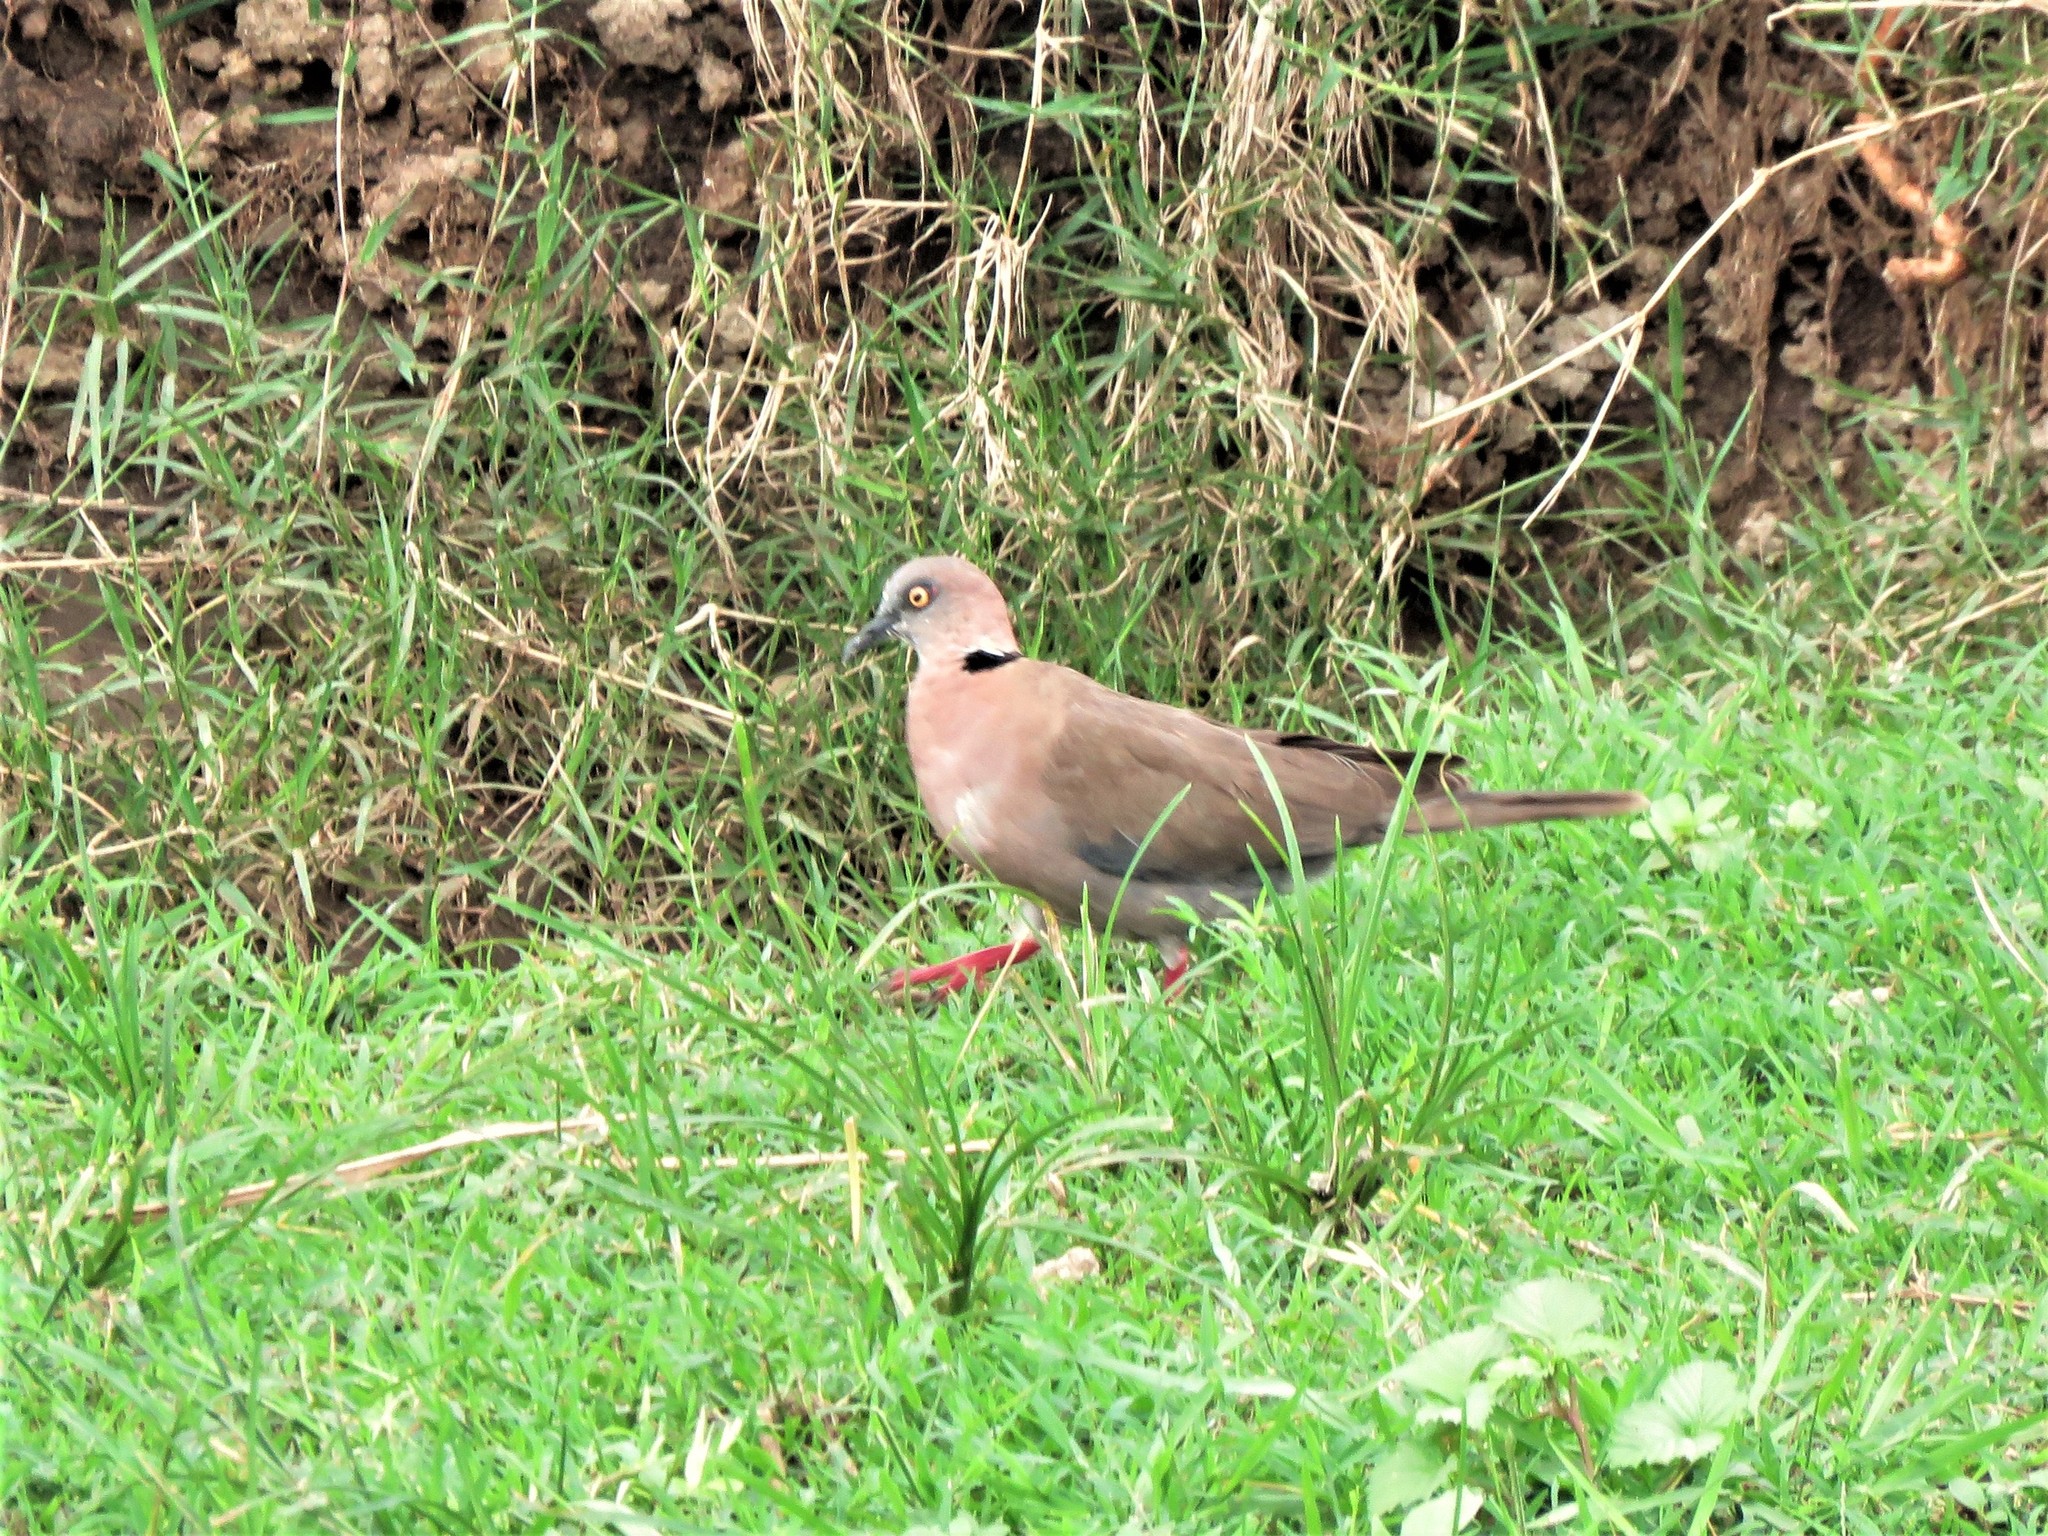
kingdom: Animalia
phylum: Chordata
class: Aves
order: Columbiformes
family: Columbidae
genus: Streptopelia
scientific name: Streptopelia decipiens
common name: Mourning collared dove
